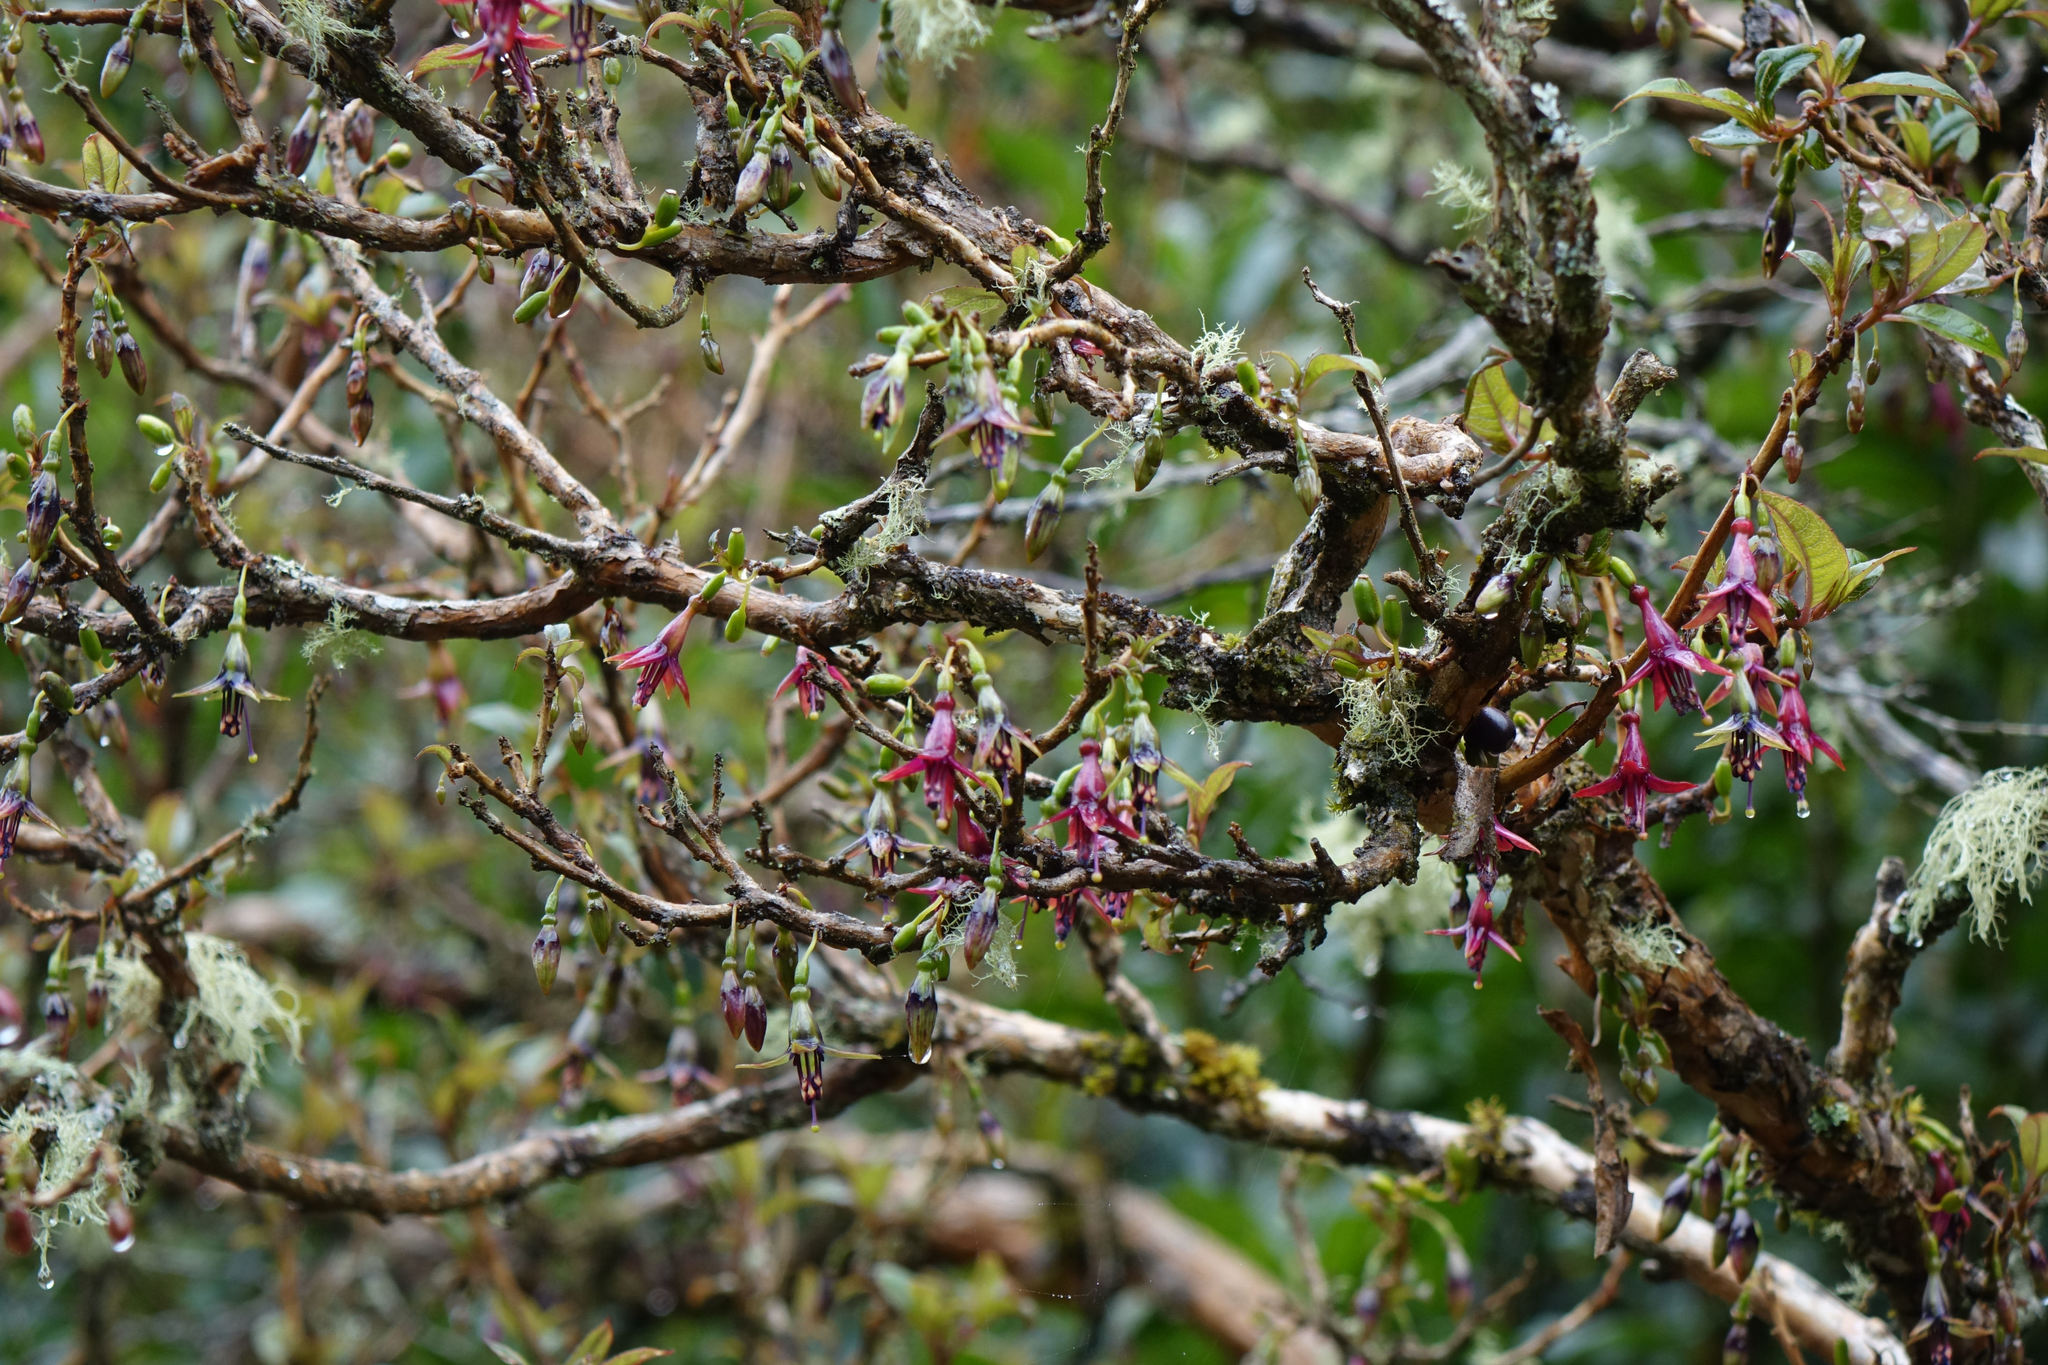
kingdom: Plantae
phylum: Tracheophyta
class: Magnoliopsida
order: Myrtales
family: Onagraceae
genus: Fuchsia
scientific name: Fuchsia excorticata
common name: Tree fuchsia
